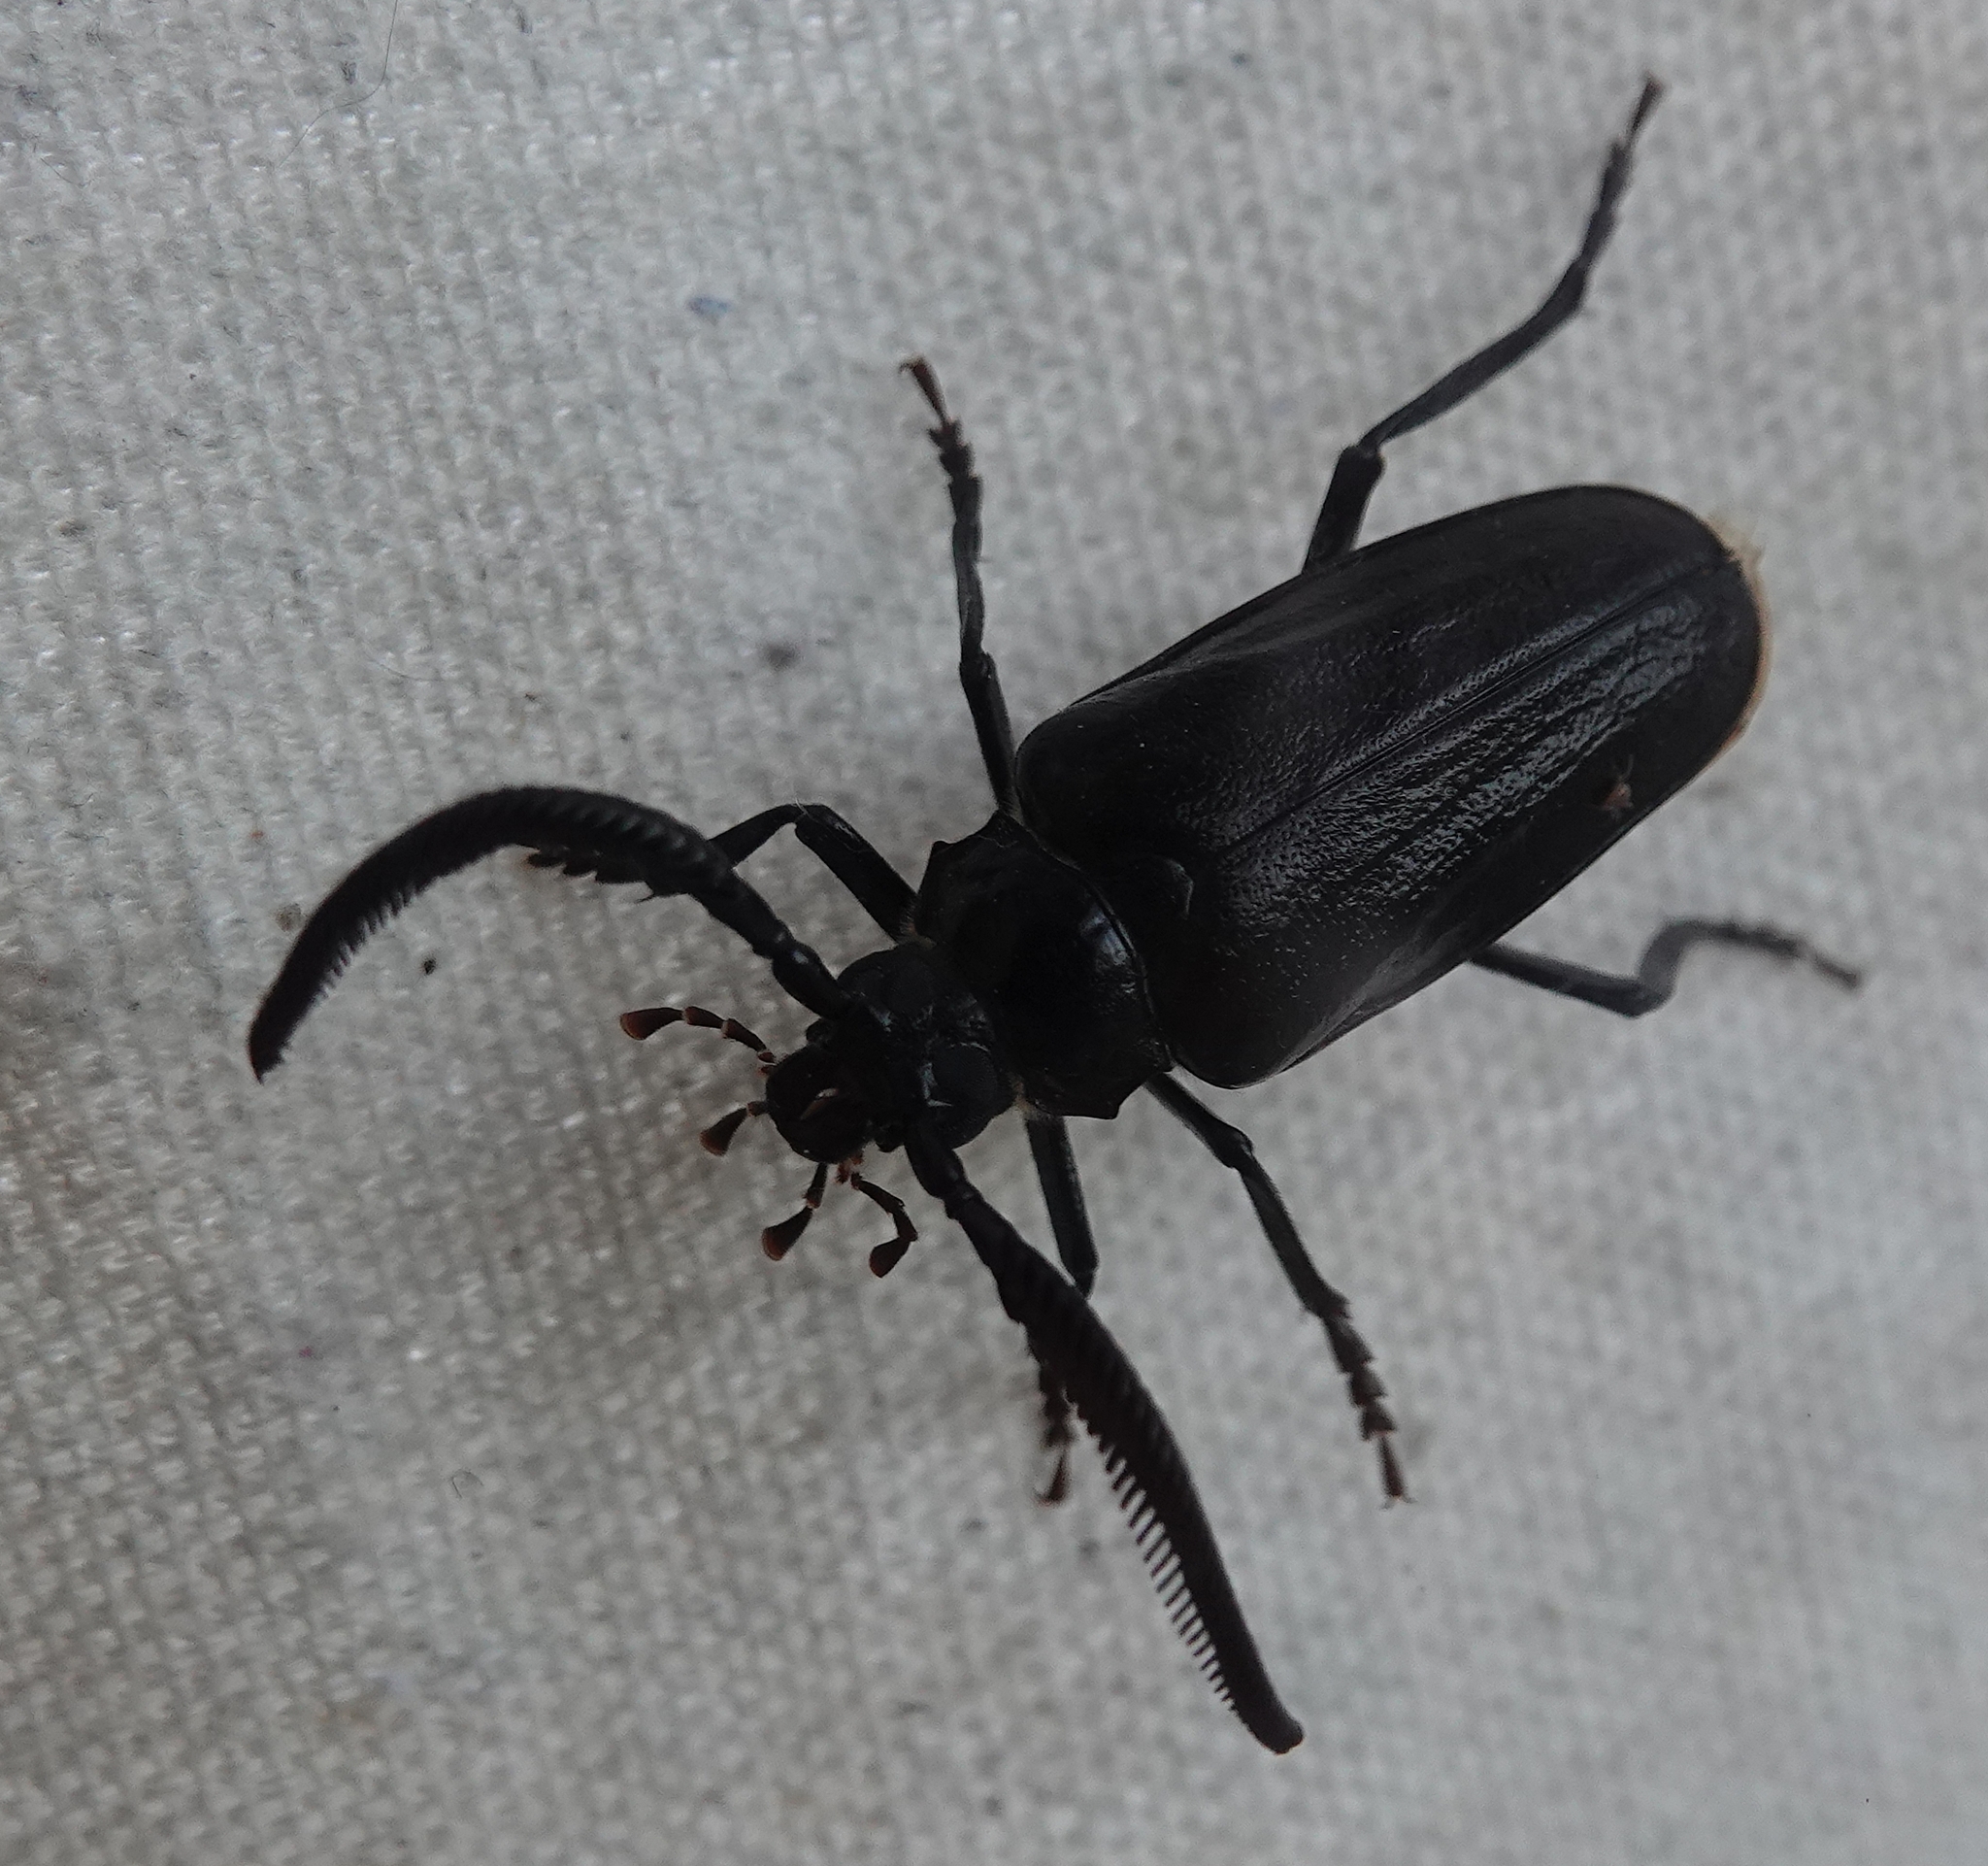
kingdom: Animalia
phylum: Arthropoda
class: Insecta
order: Coleoptera
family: Cerambycidae
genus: Prionus
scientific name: Prionus fissicornis
